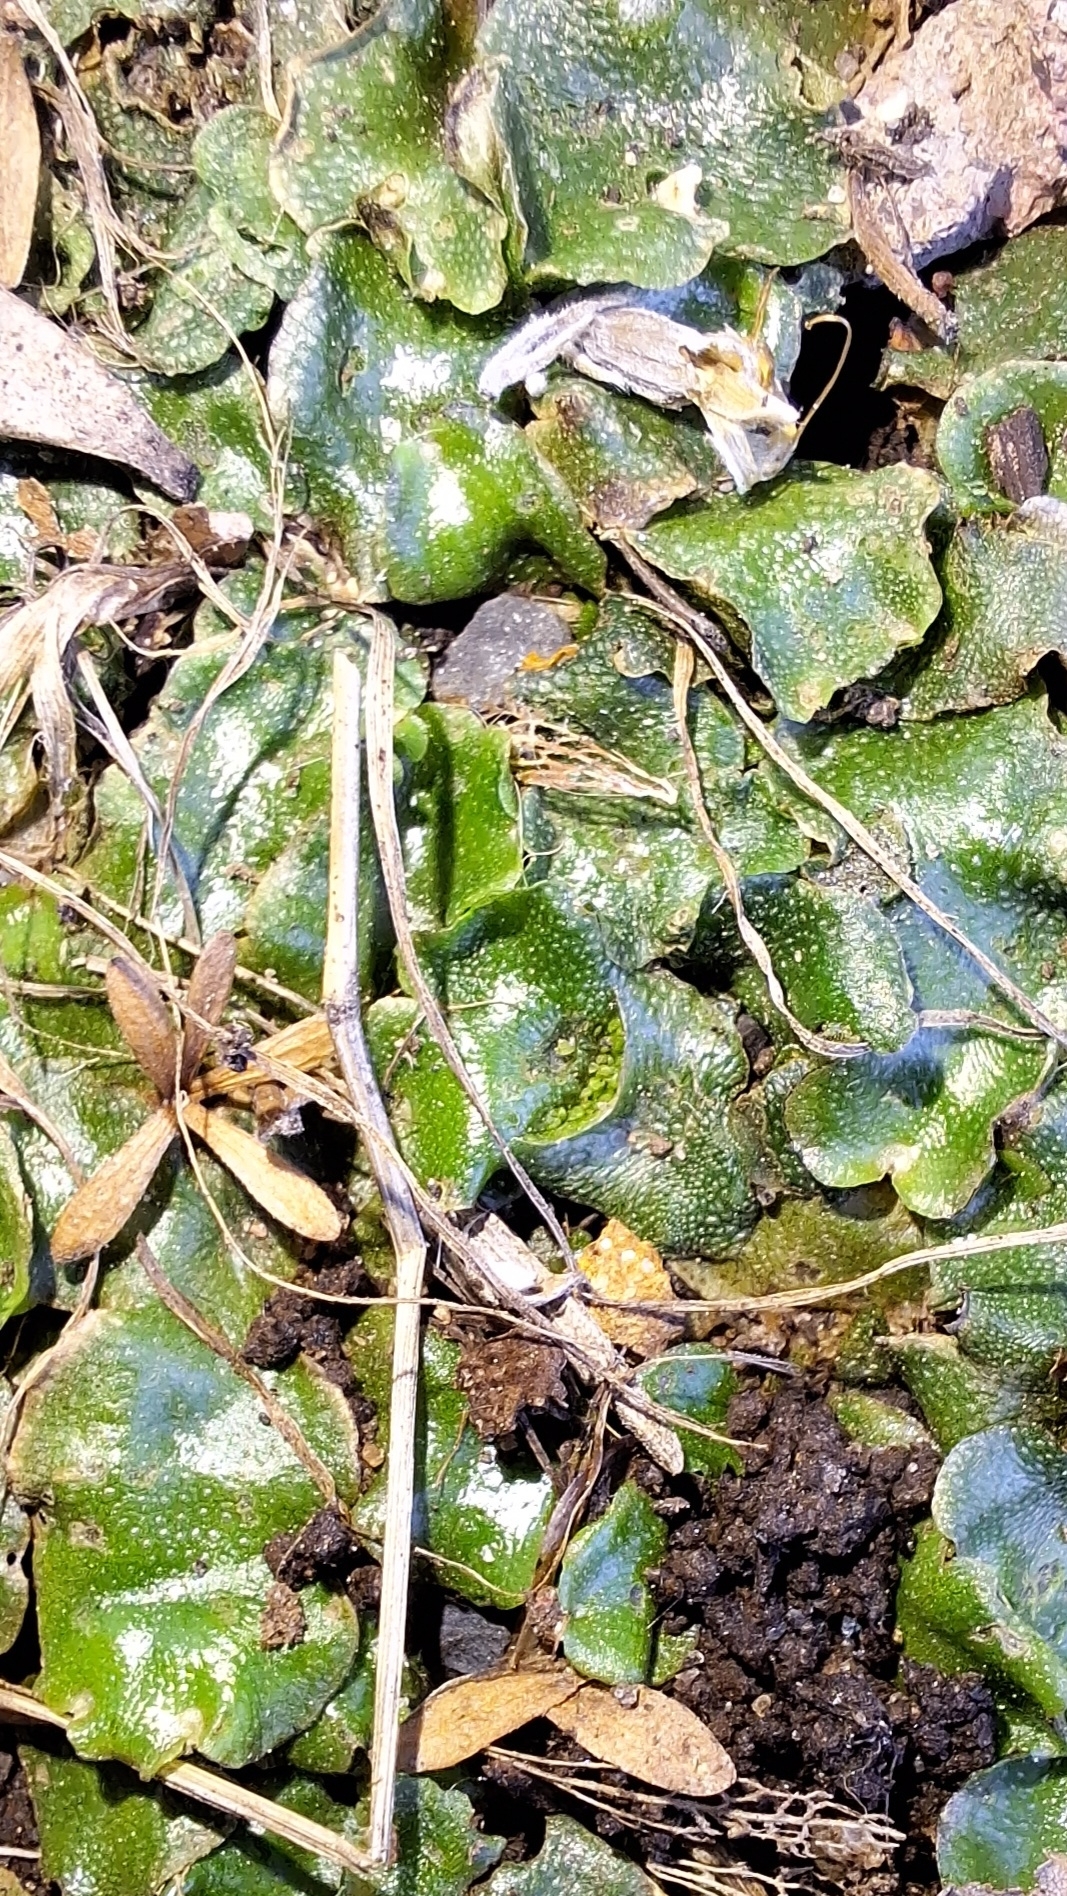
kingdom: Plantae
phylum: Marchantiophyta
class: Marchantiopsida
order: Lunulariales
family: Lunulariaceae
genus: Lunularia
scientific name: Lunularia cruciata
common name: Crescent-cup liverwort
